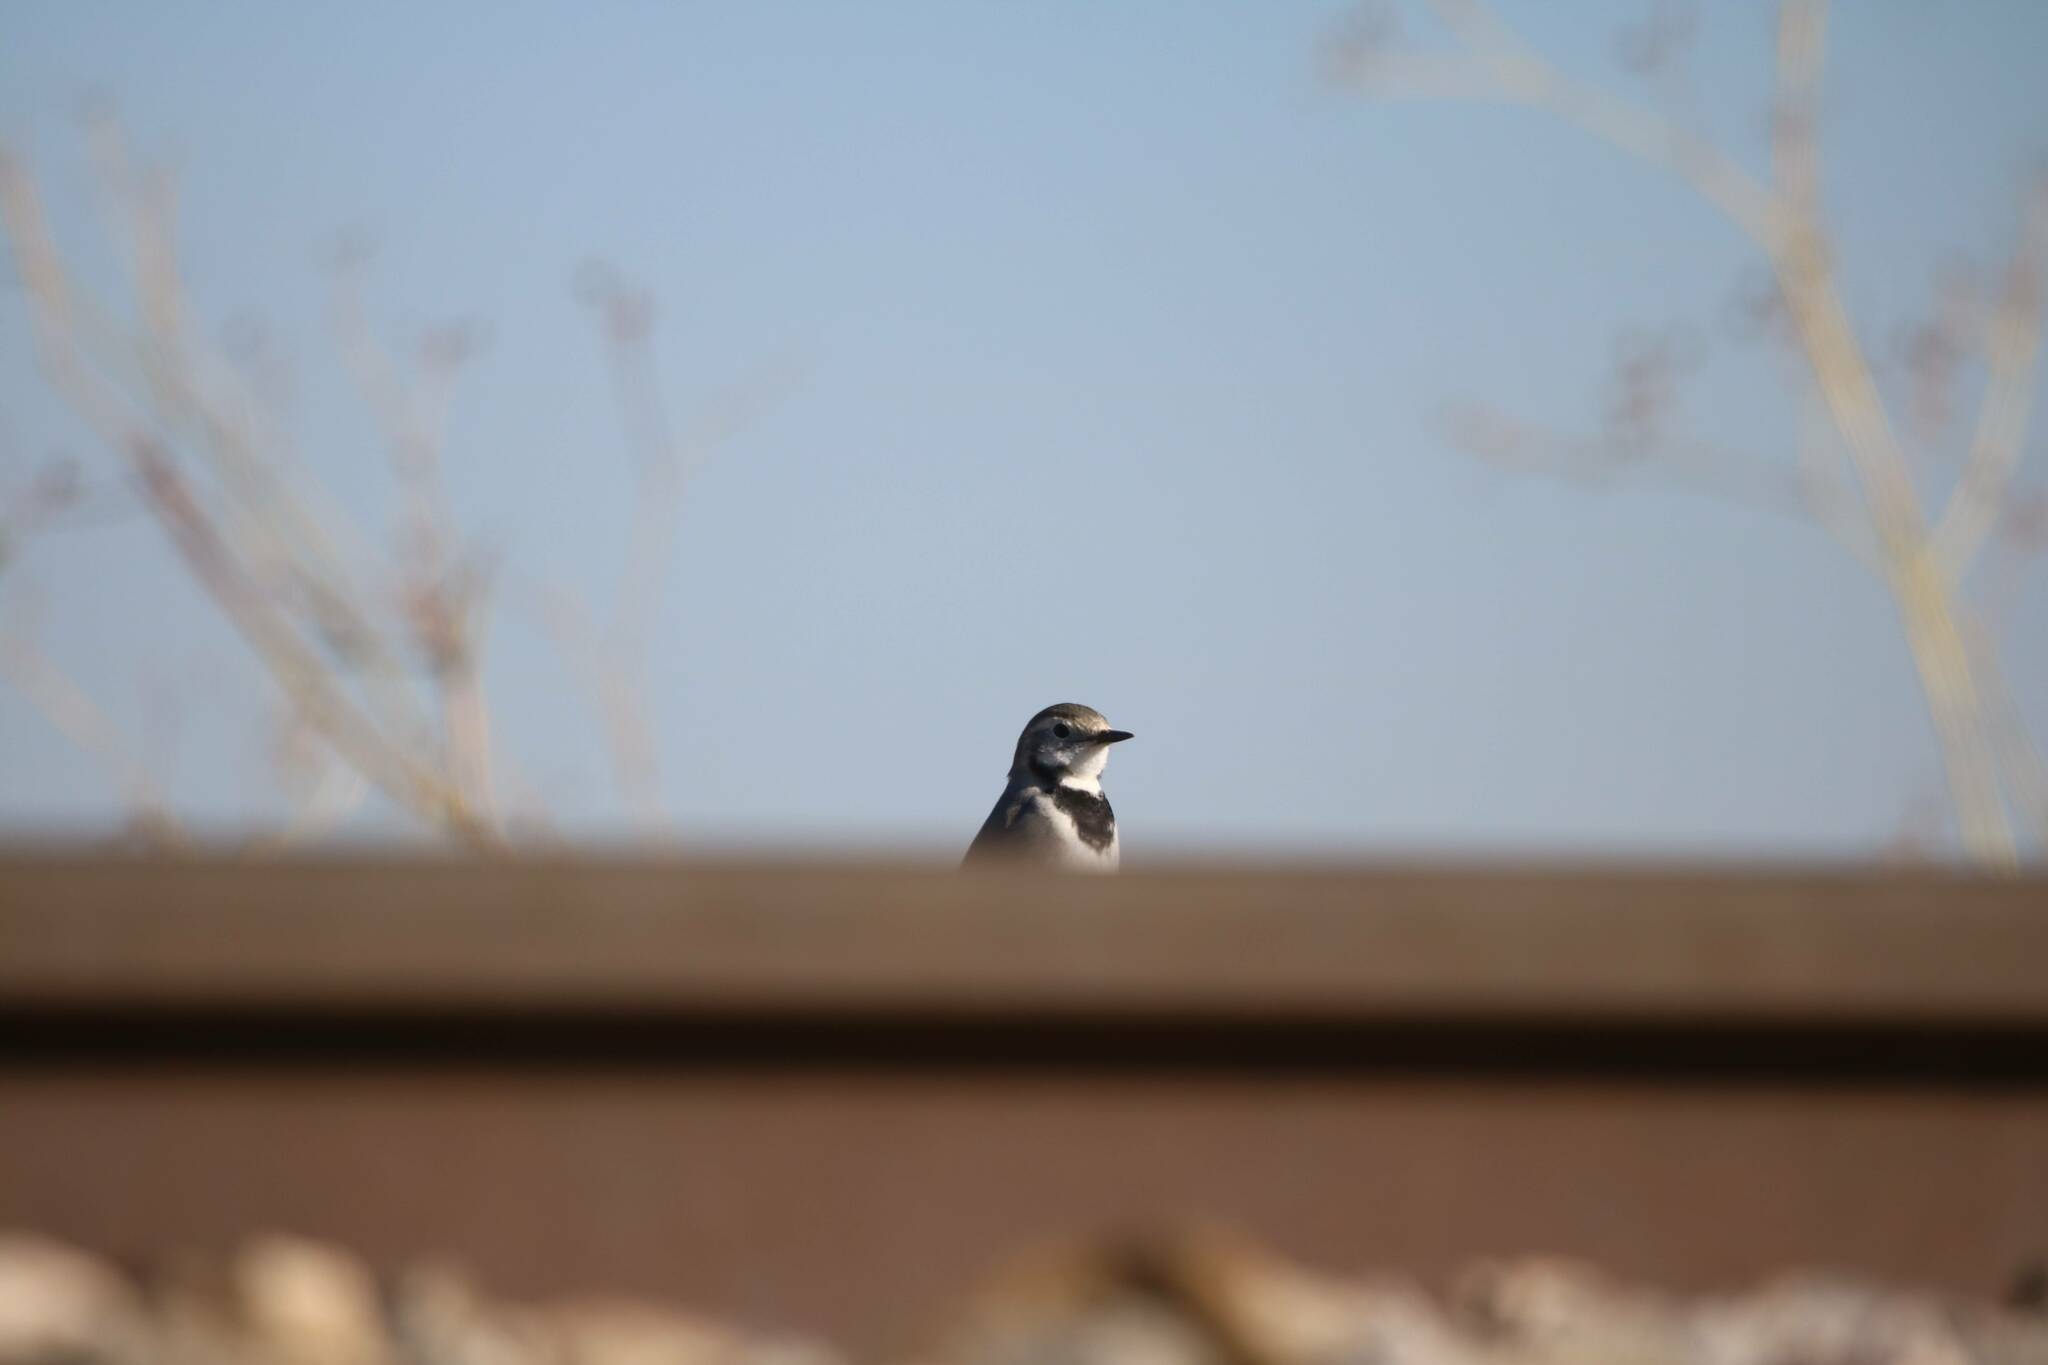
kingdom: Animalia
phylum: Chordata
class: Aves
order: Passeriformes
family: Motacillidae
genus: Motacilla
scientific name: Motacilla alba
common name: White wagtail
